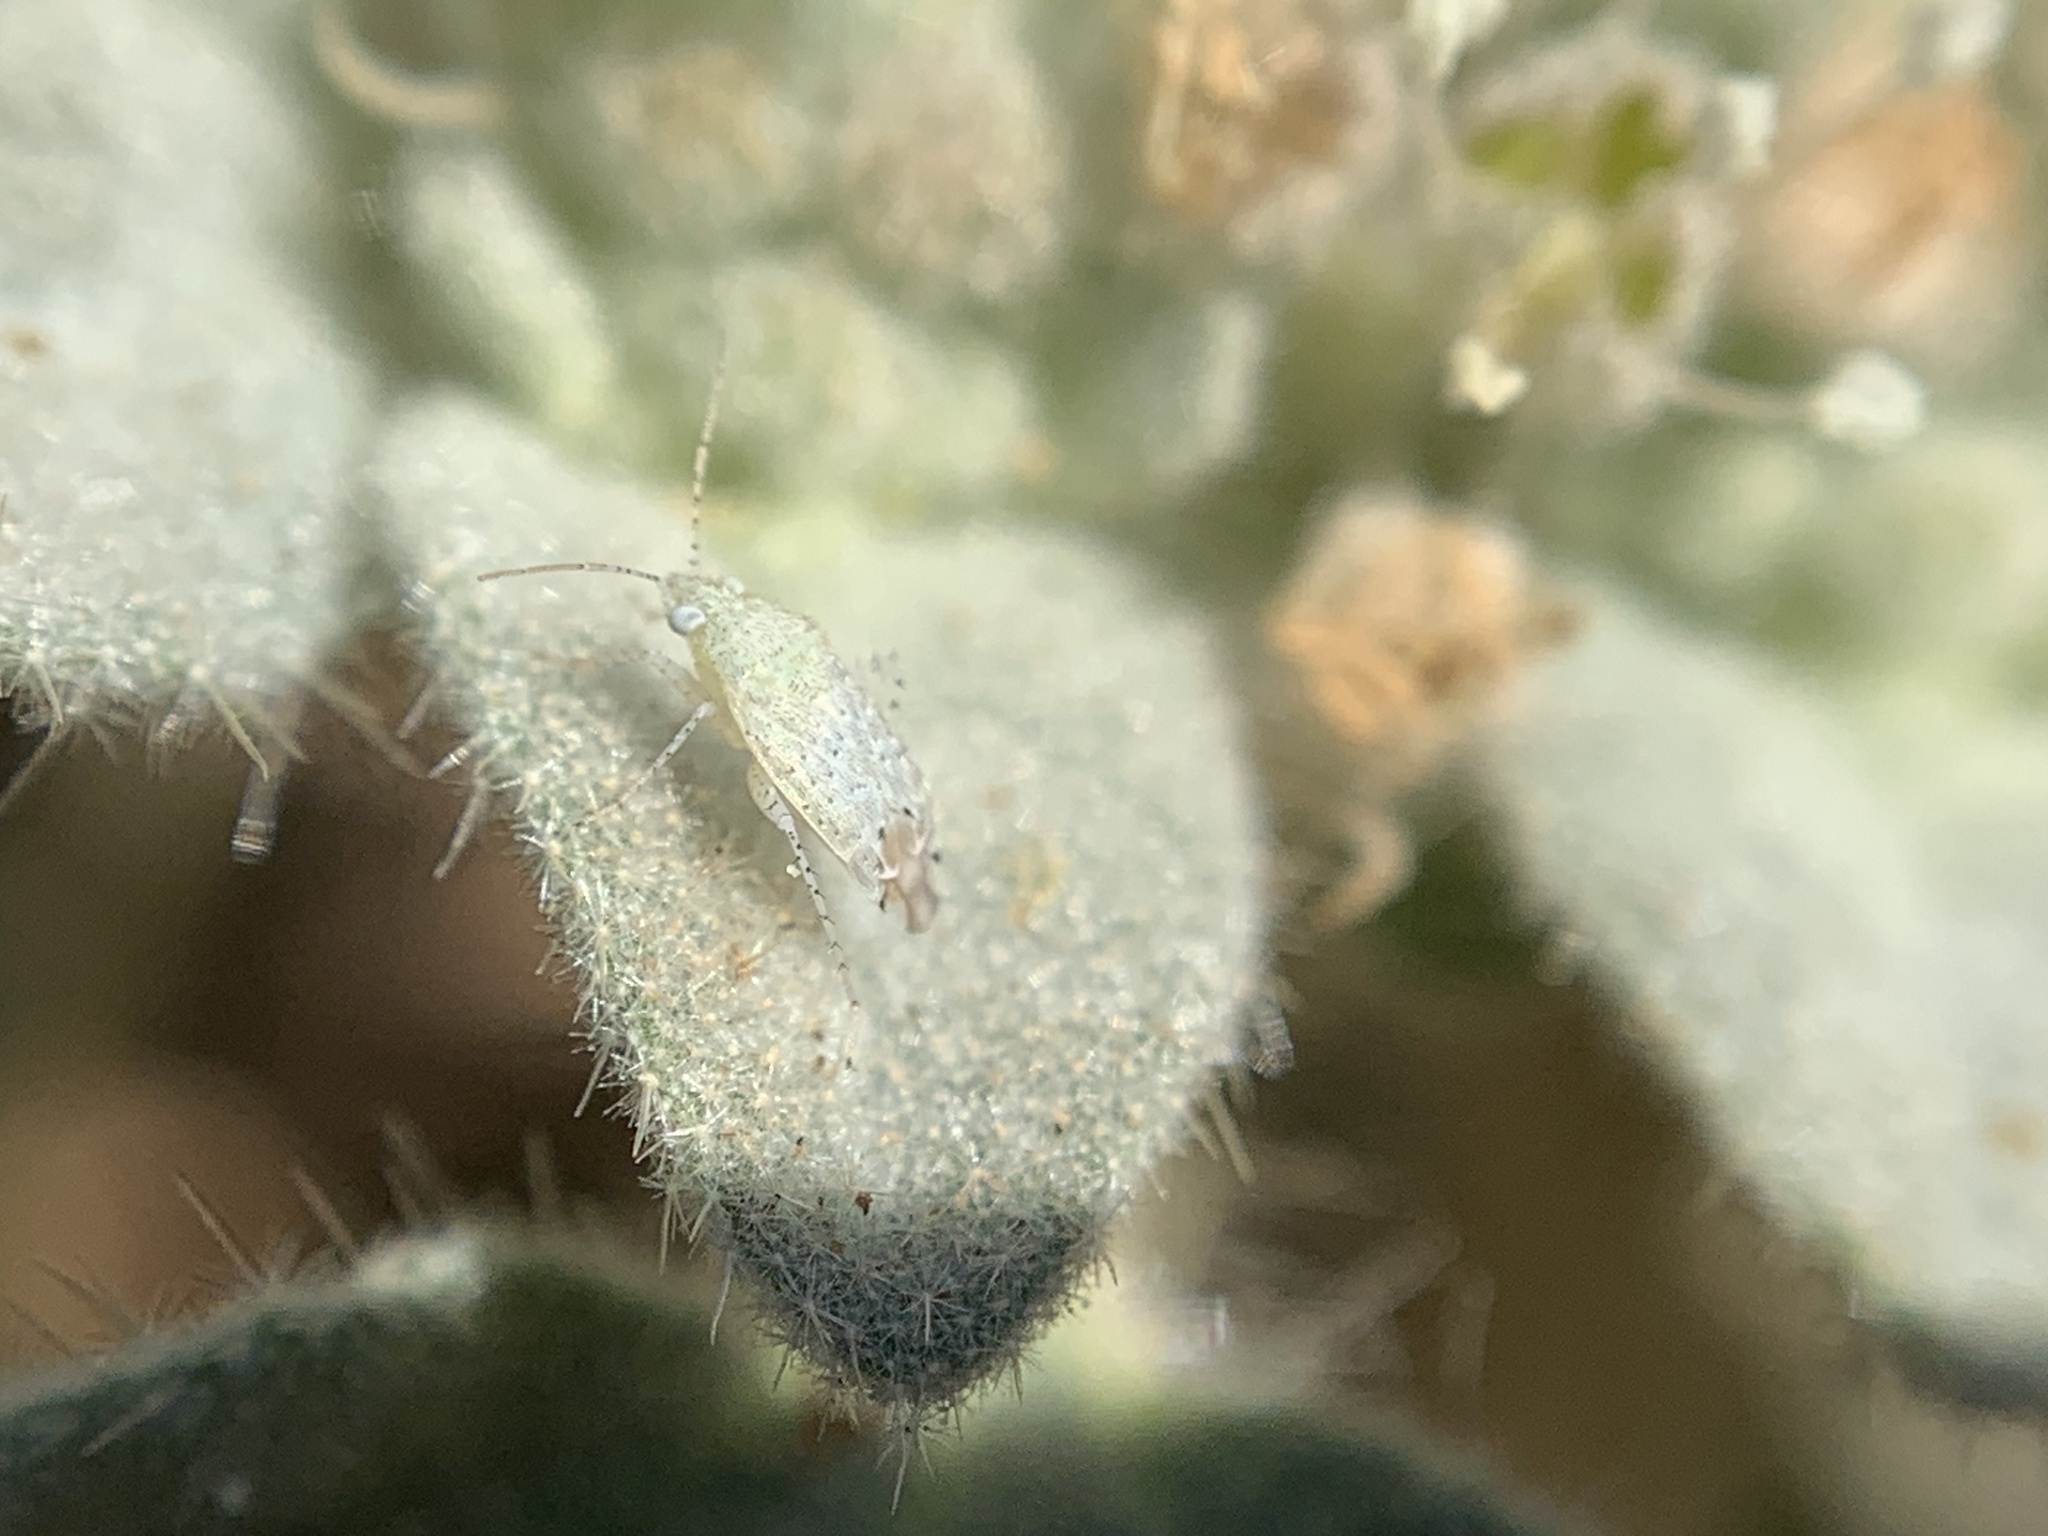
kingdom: Animalia
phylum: Arthropoda
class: Insecta
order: Hemiptera
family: Miridae
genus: Pseudatomoscelis
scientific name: Pseudatomoscelis seriatus
